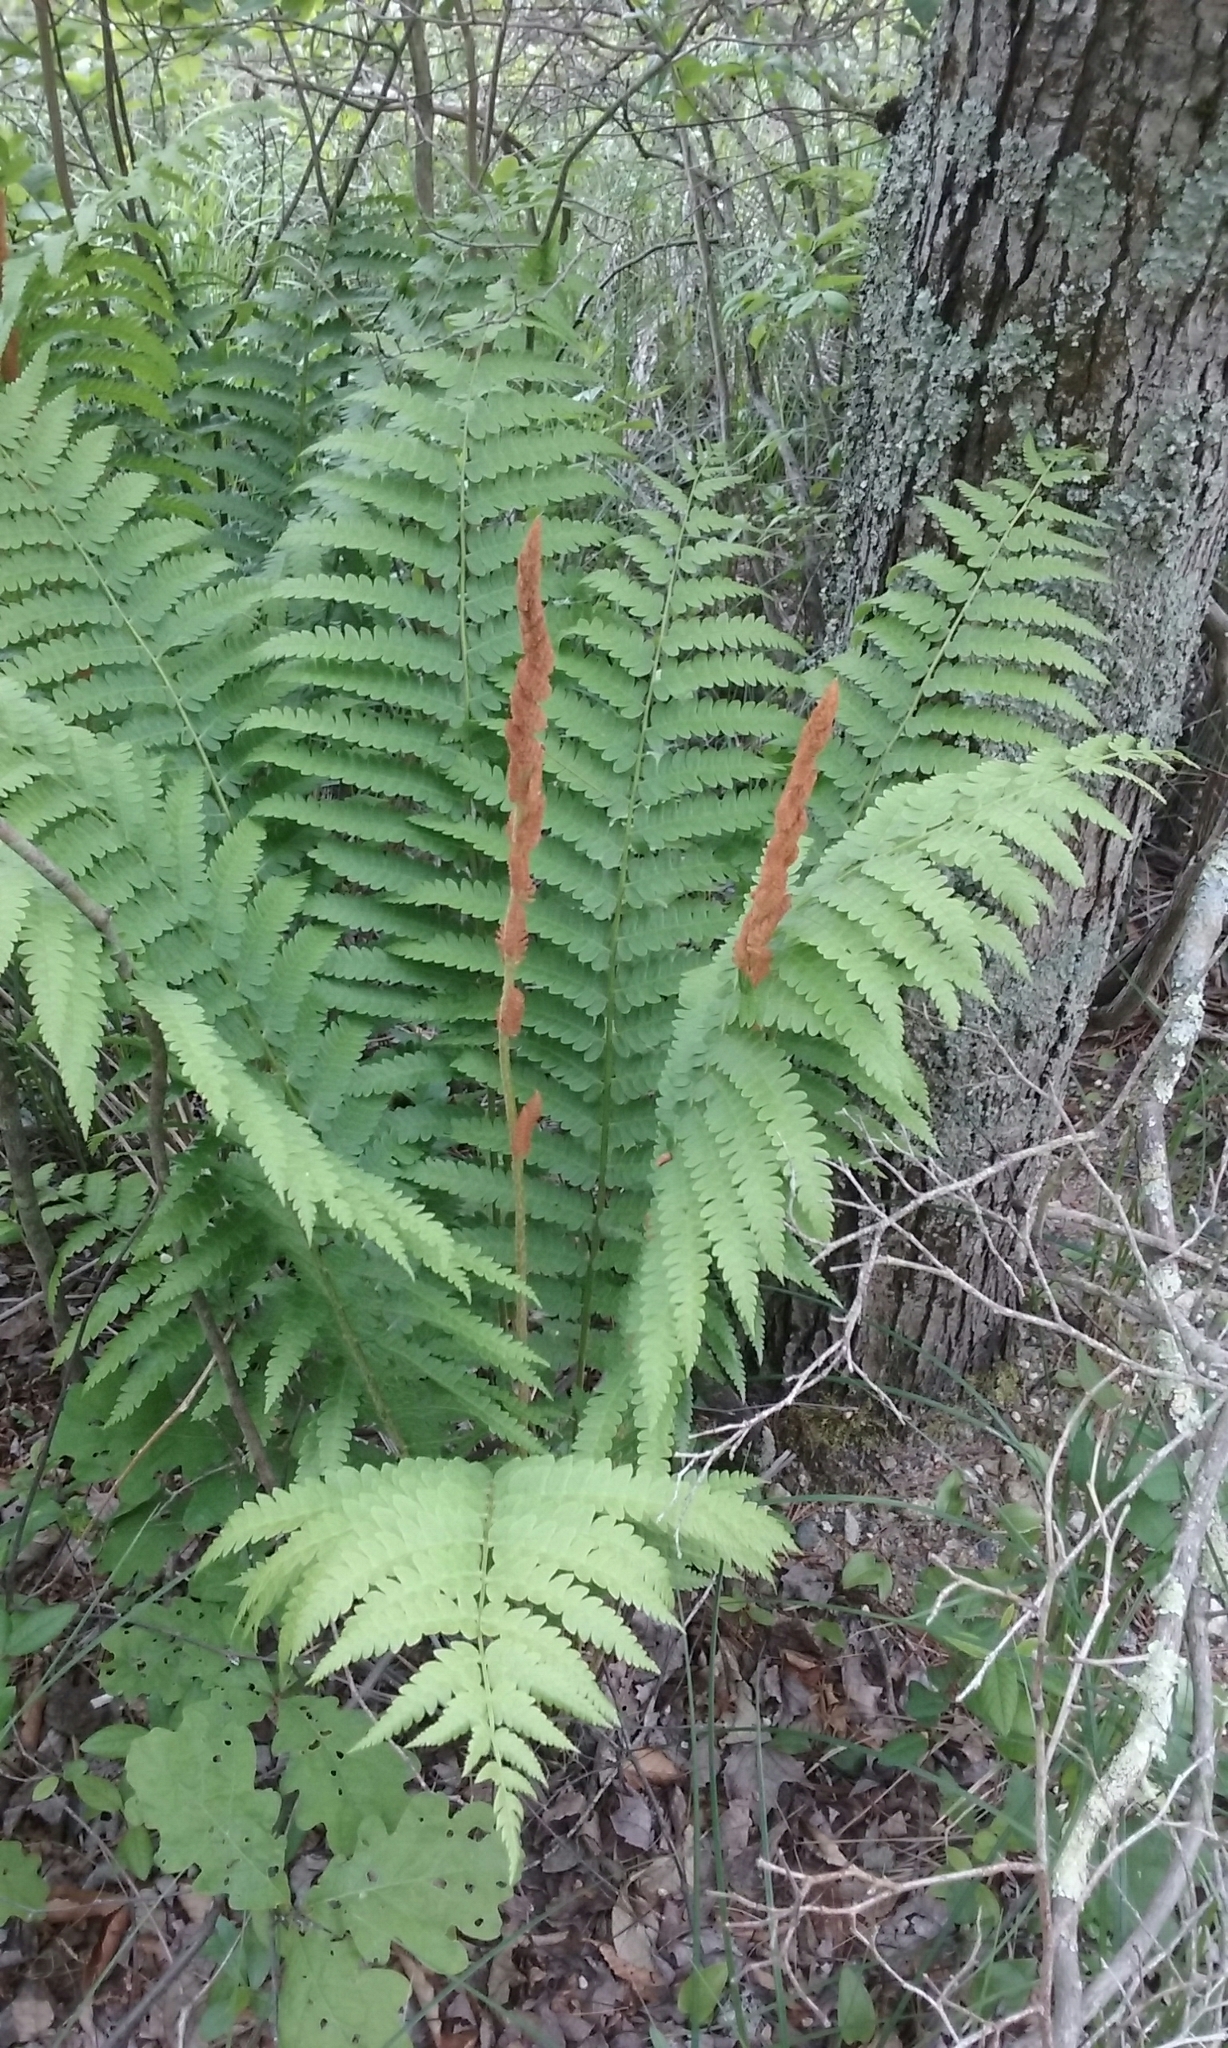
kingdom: Plantae
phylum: Tracheophyta
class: Polypodiopsida
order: Osmundales
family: Osmundaceae
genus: Osmundastrum
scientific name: Osmundastrum cinnamomeum
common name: Cinnamon fern
